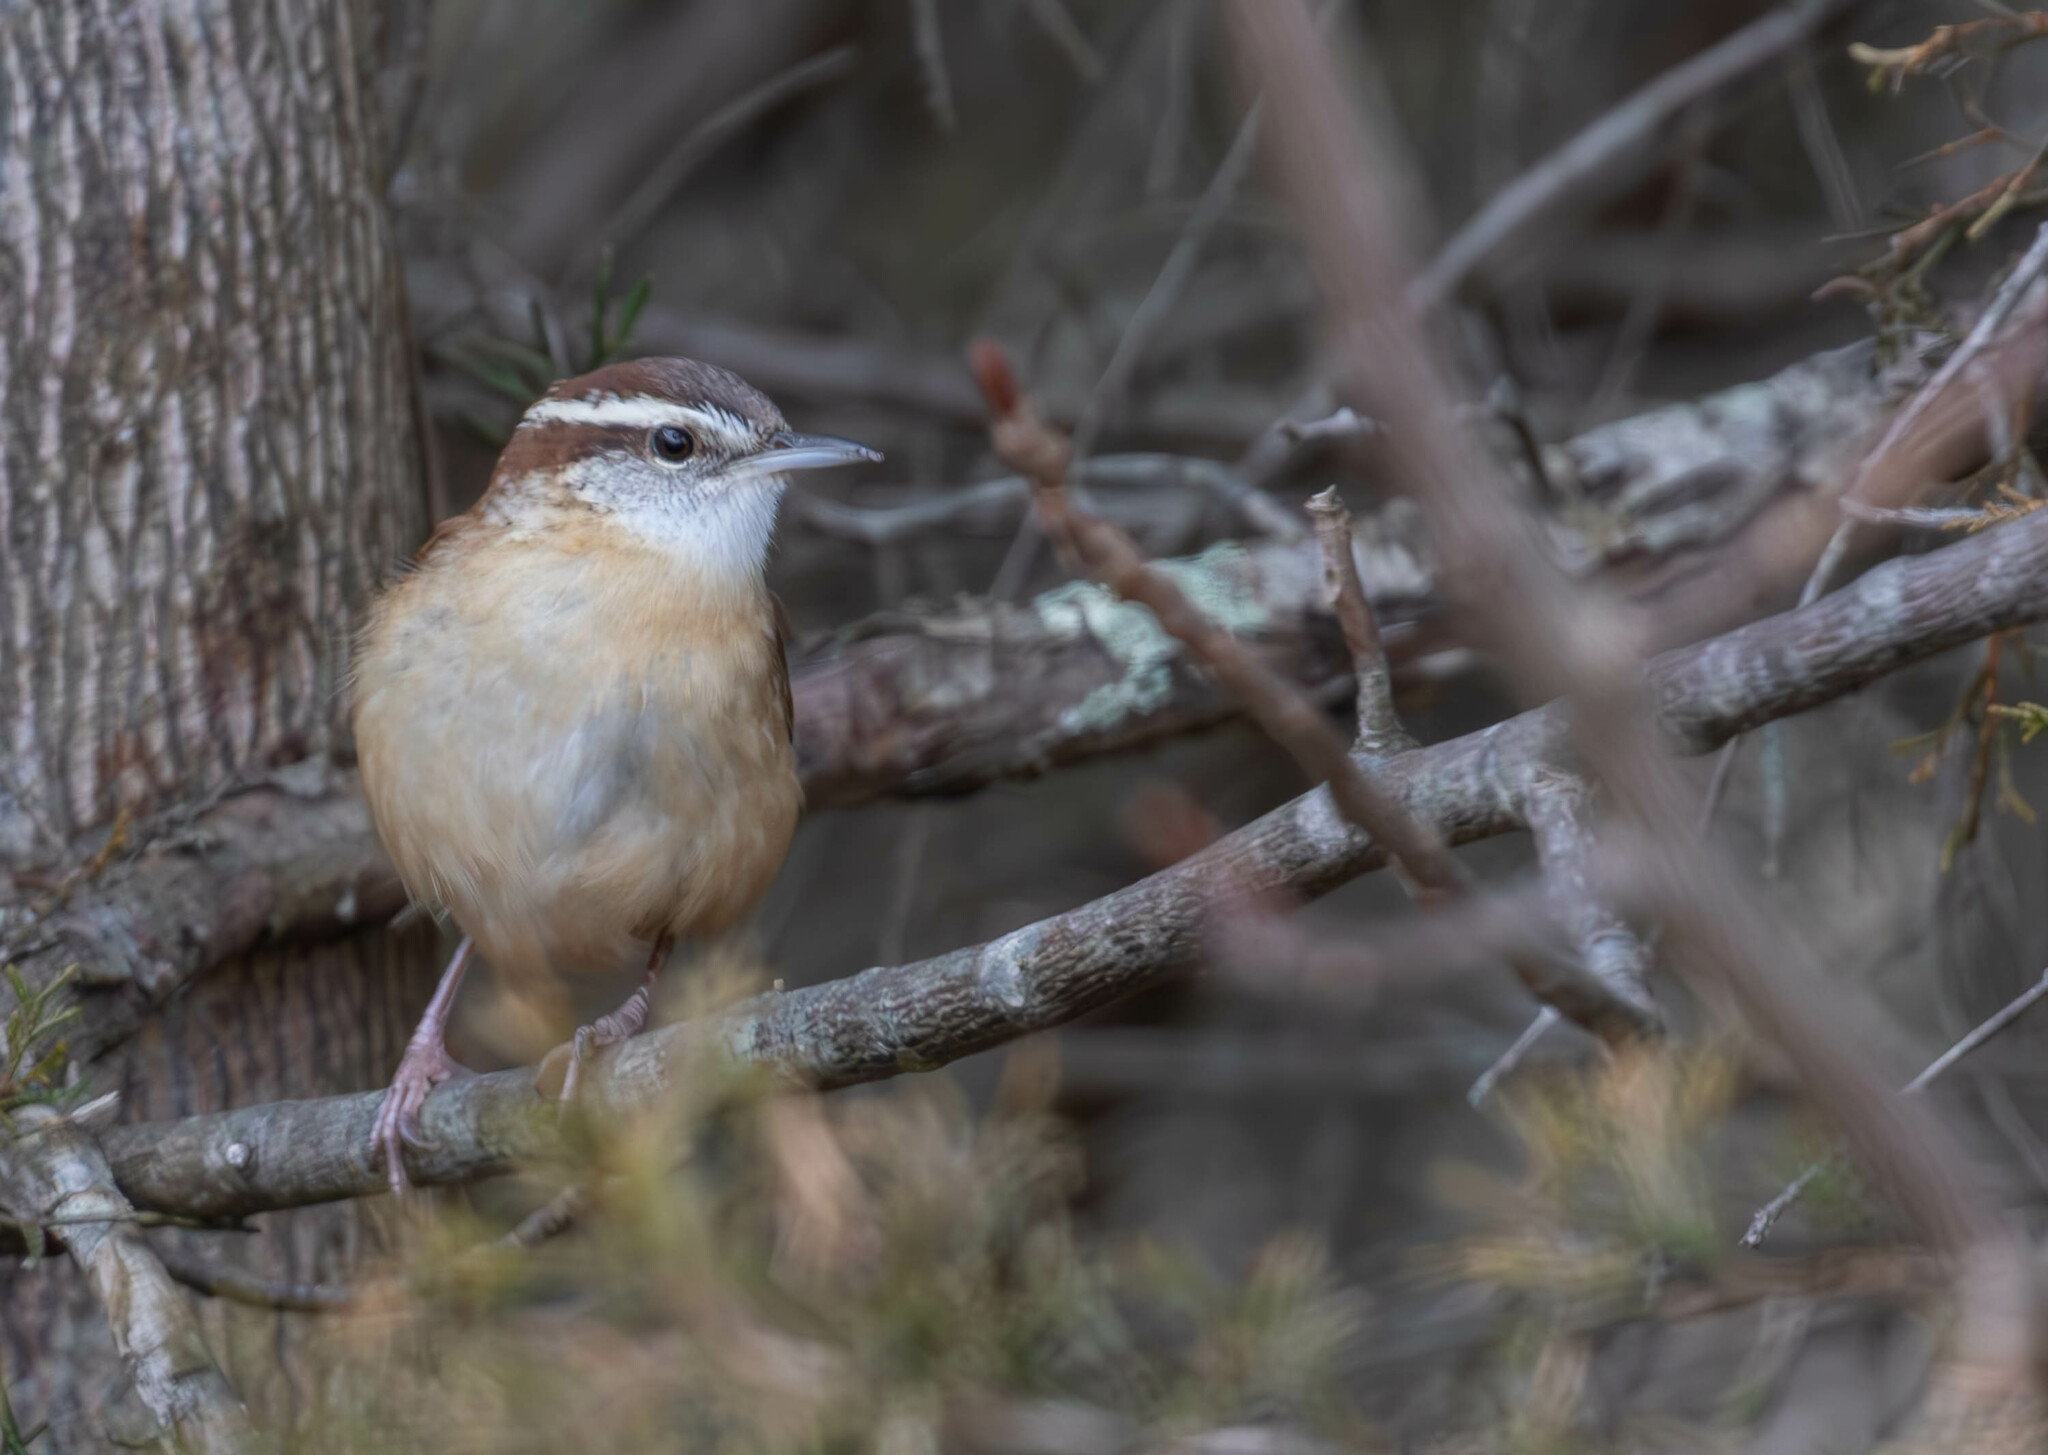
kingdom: Animalia
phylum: Chordata
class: Aves
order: Passeriformes
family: Troglodytidae
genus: Thryothorus
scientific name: Thryothorus ludovicianus
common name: Carolina wren
